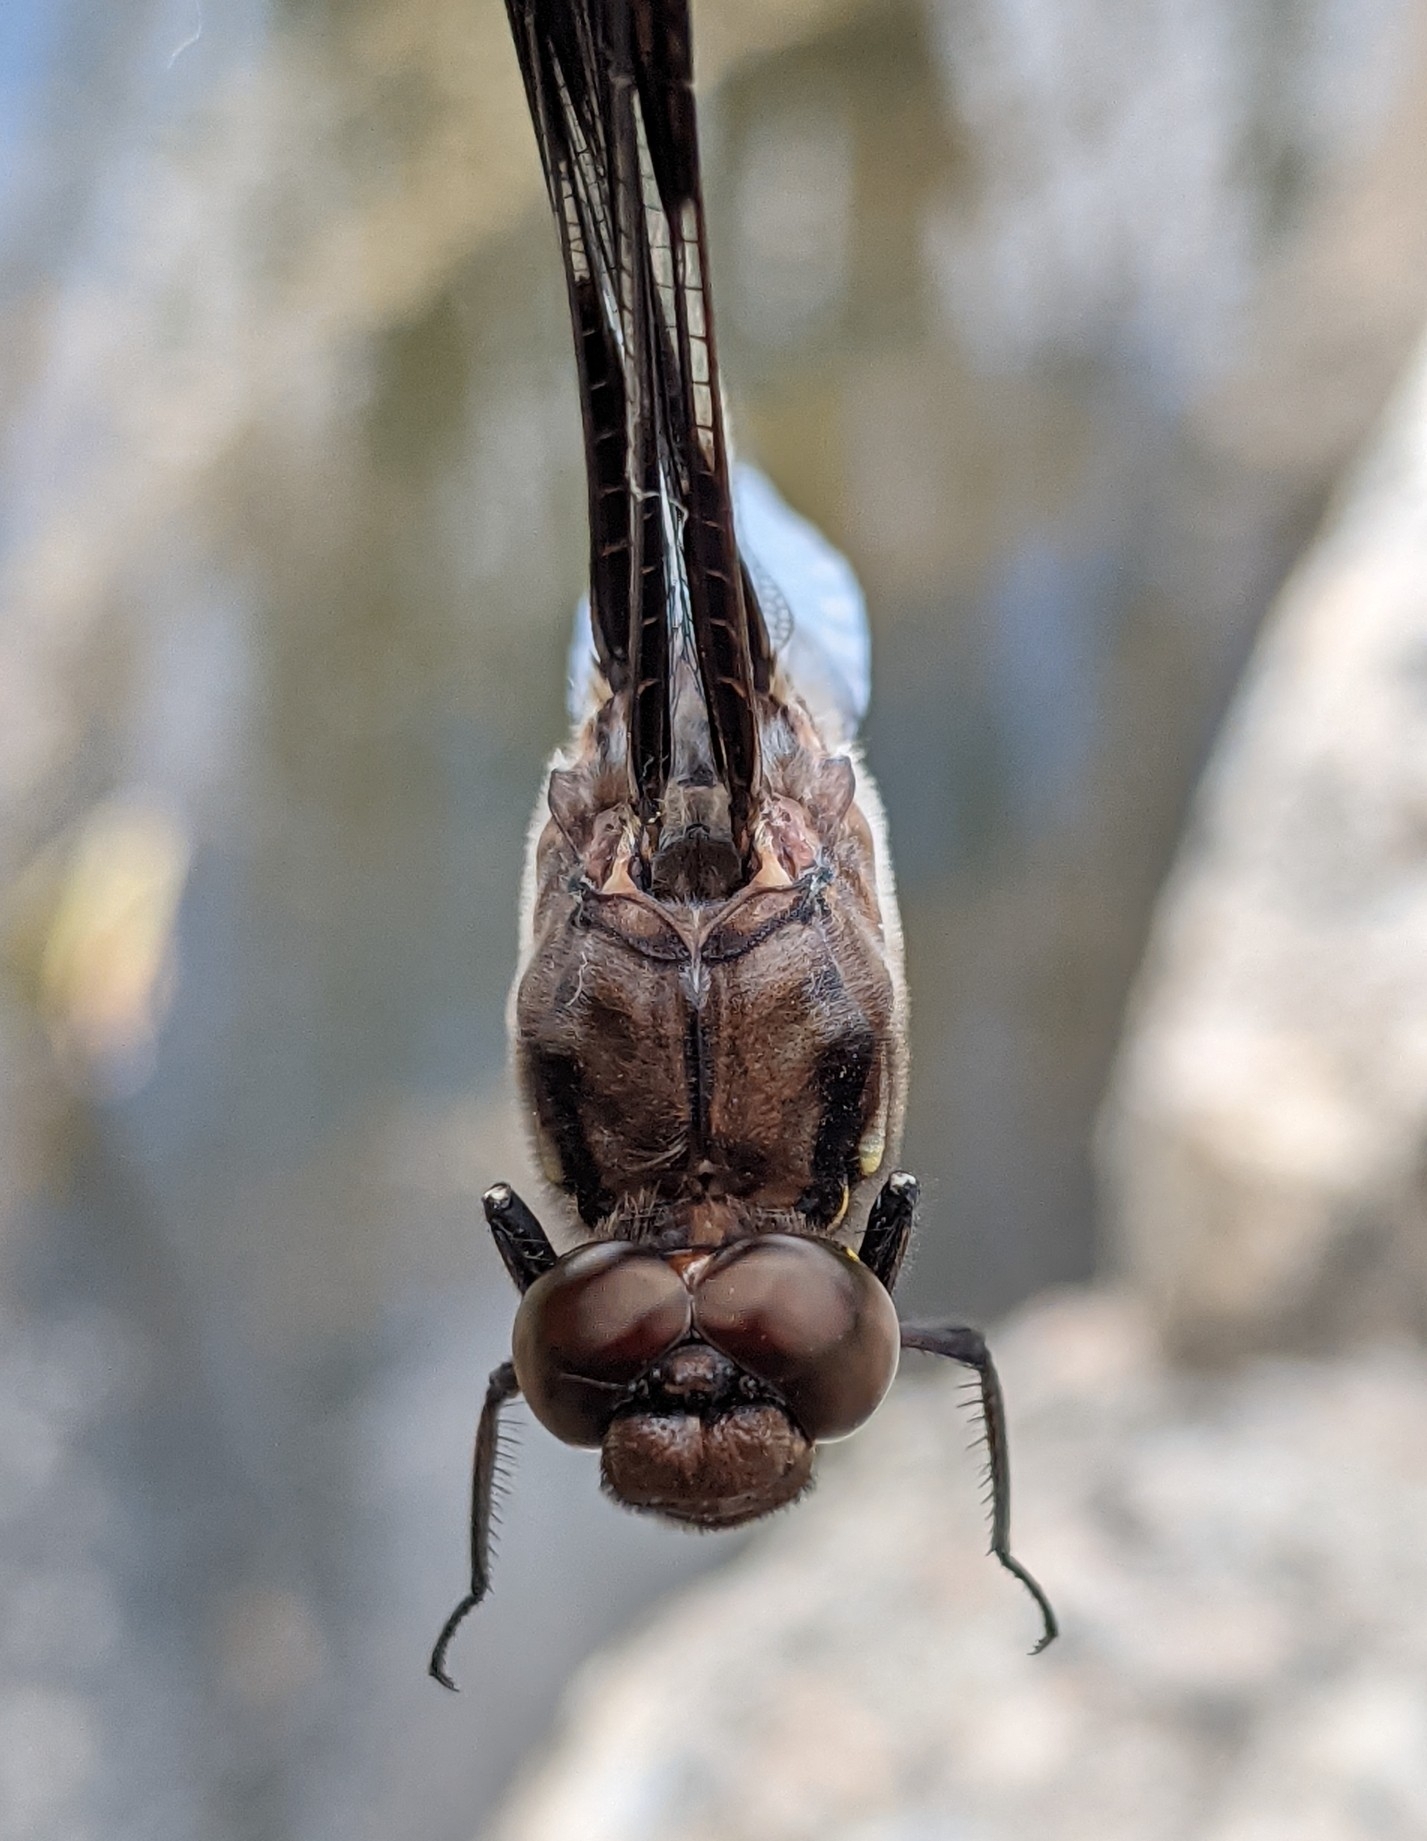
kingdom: Animalia
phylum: Arthropoda
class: Insecta
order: Odonata
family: Libellulidae
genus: Plathemis
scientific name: Plathemis lydia
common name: Common whitetail
